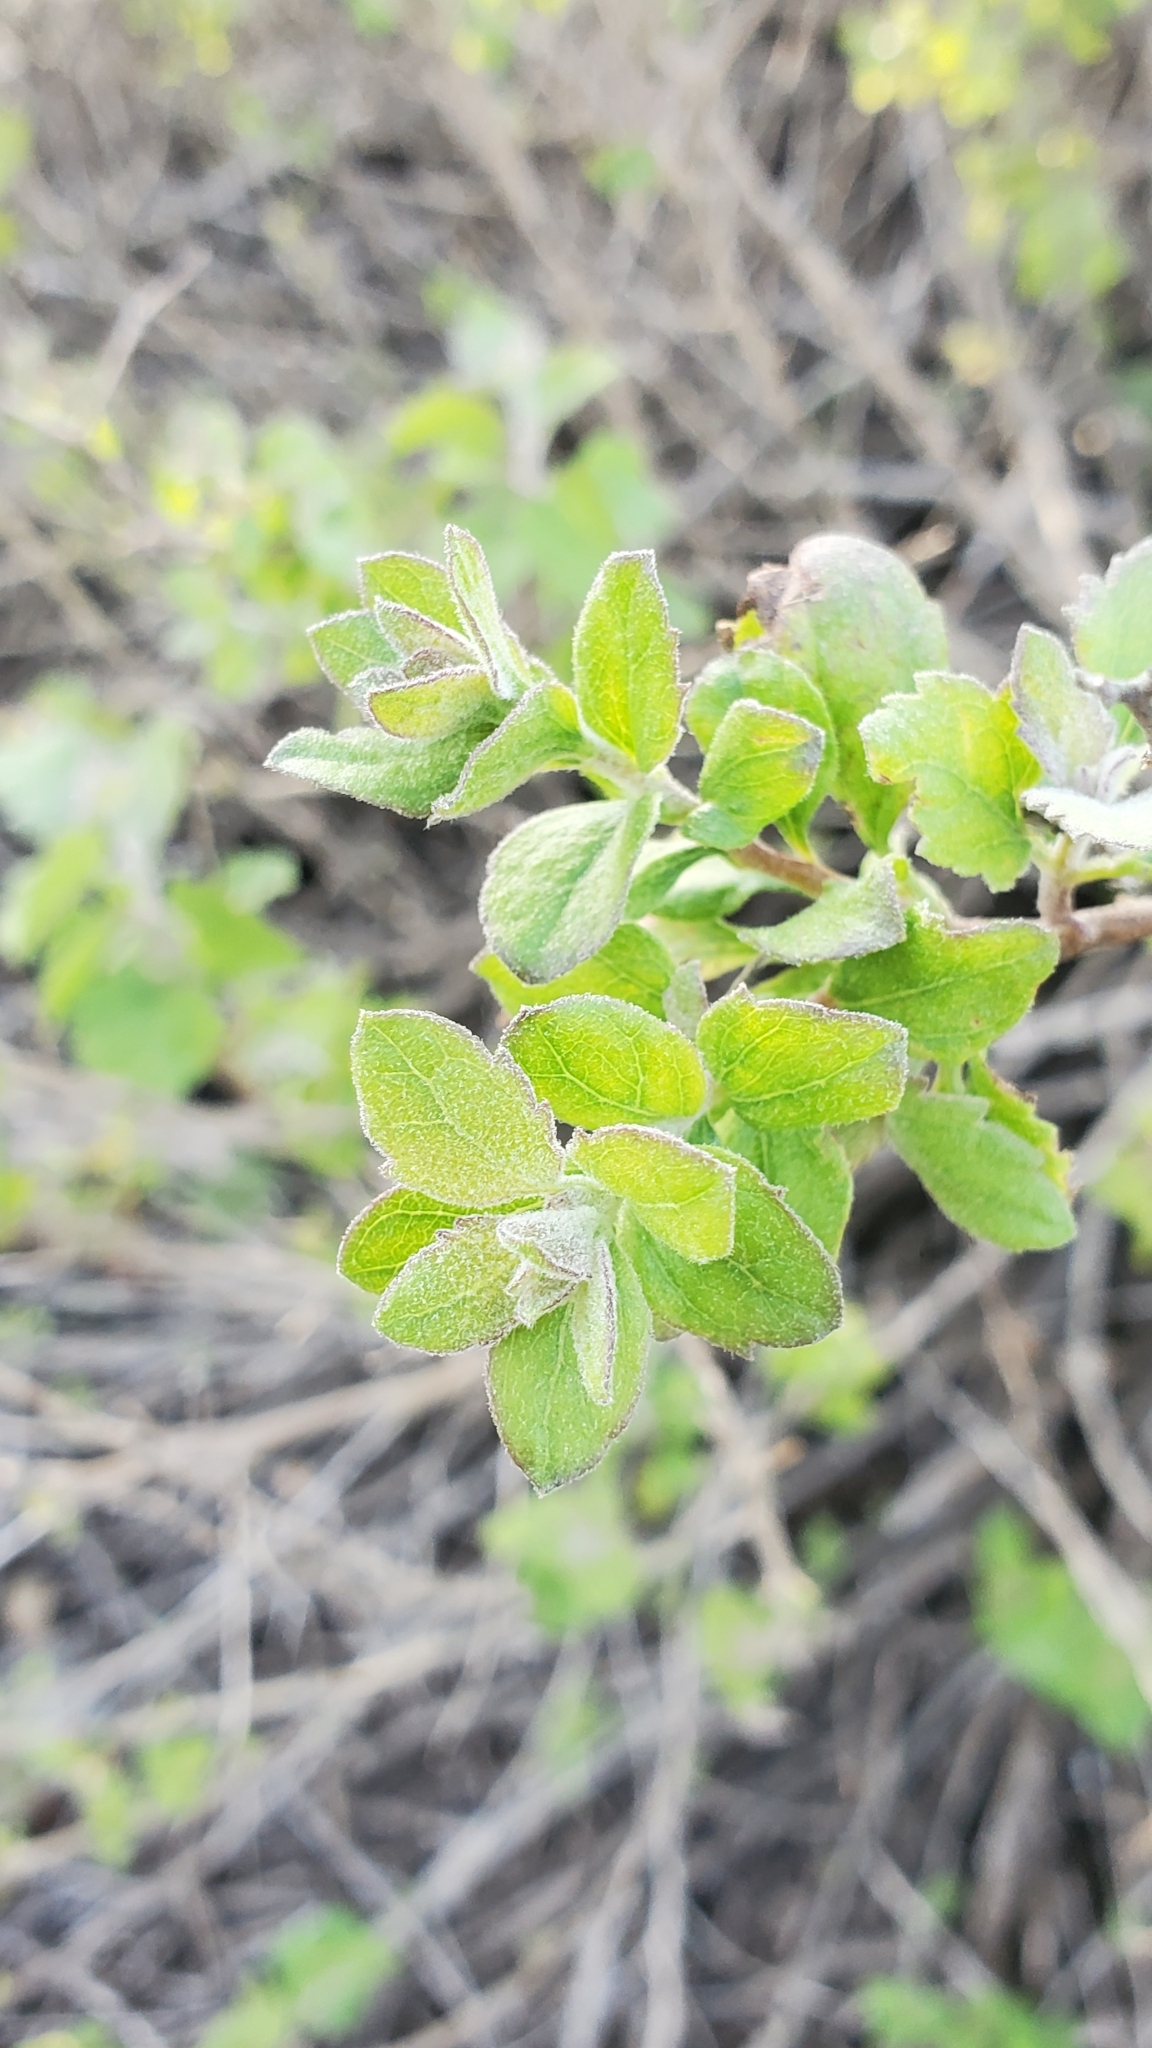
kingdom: Plantae
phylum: Tracheophyta
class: Magnoliopsida
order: Asterales
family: Asteraceae
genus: Brickellia
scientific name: Brickellia californica
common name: California brickellbush
